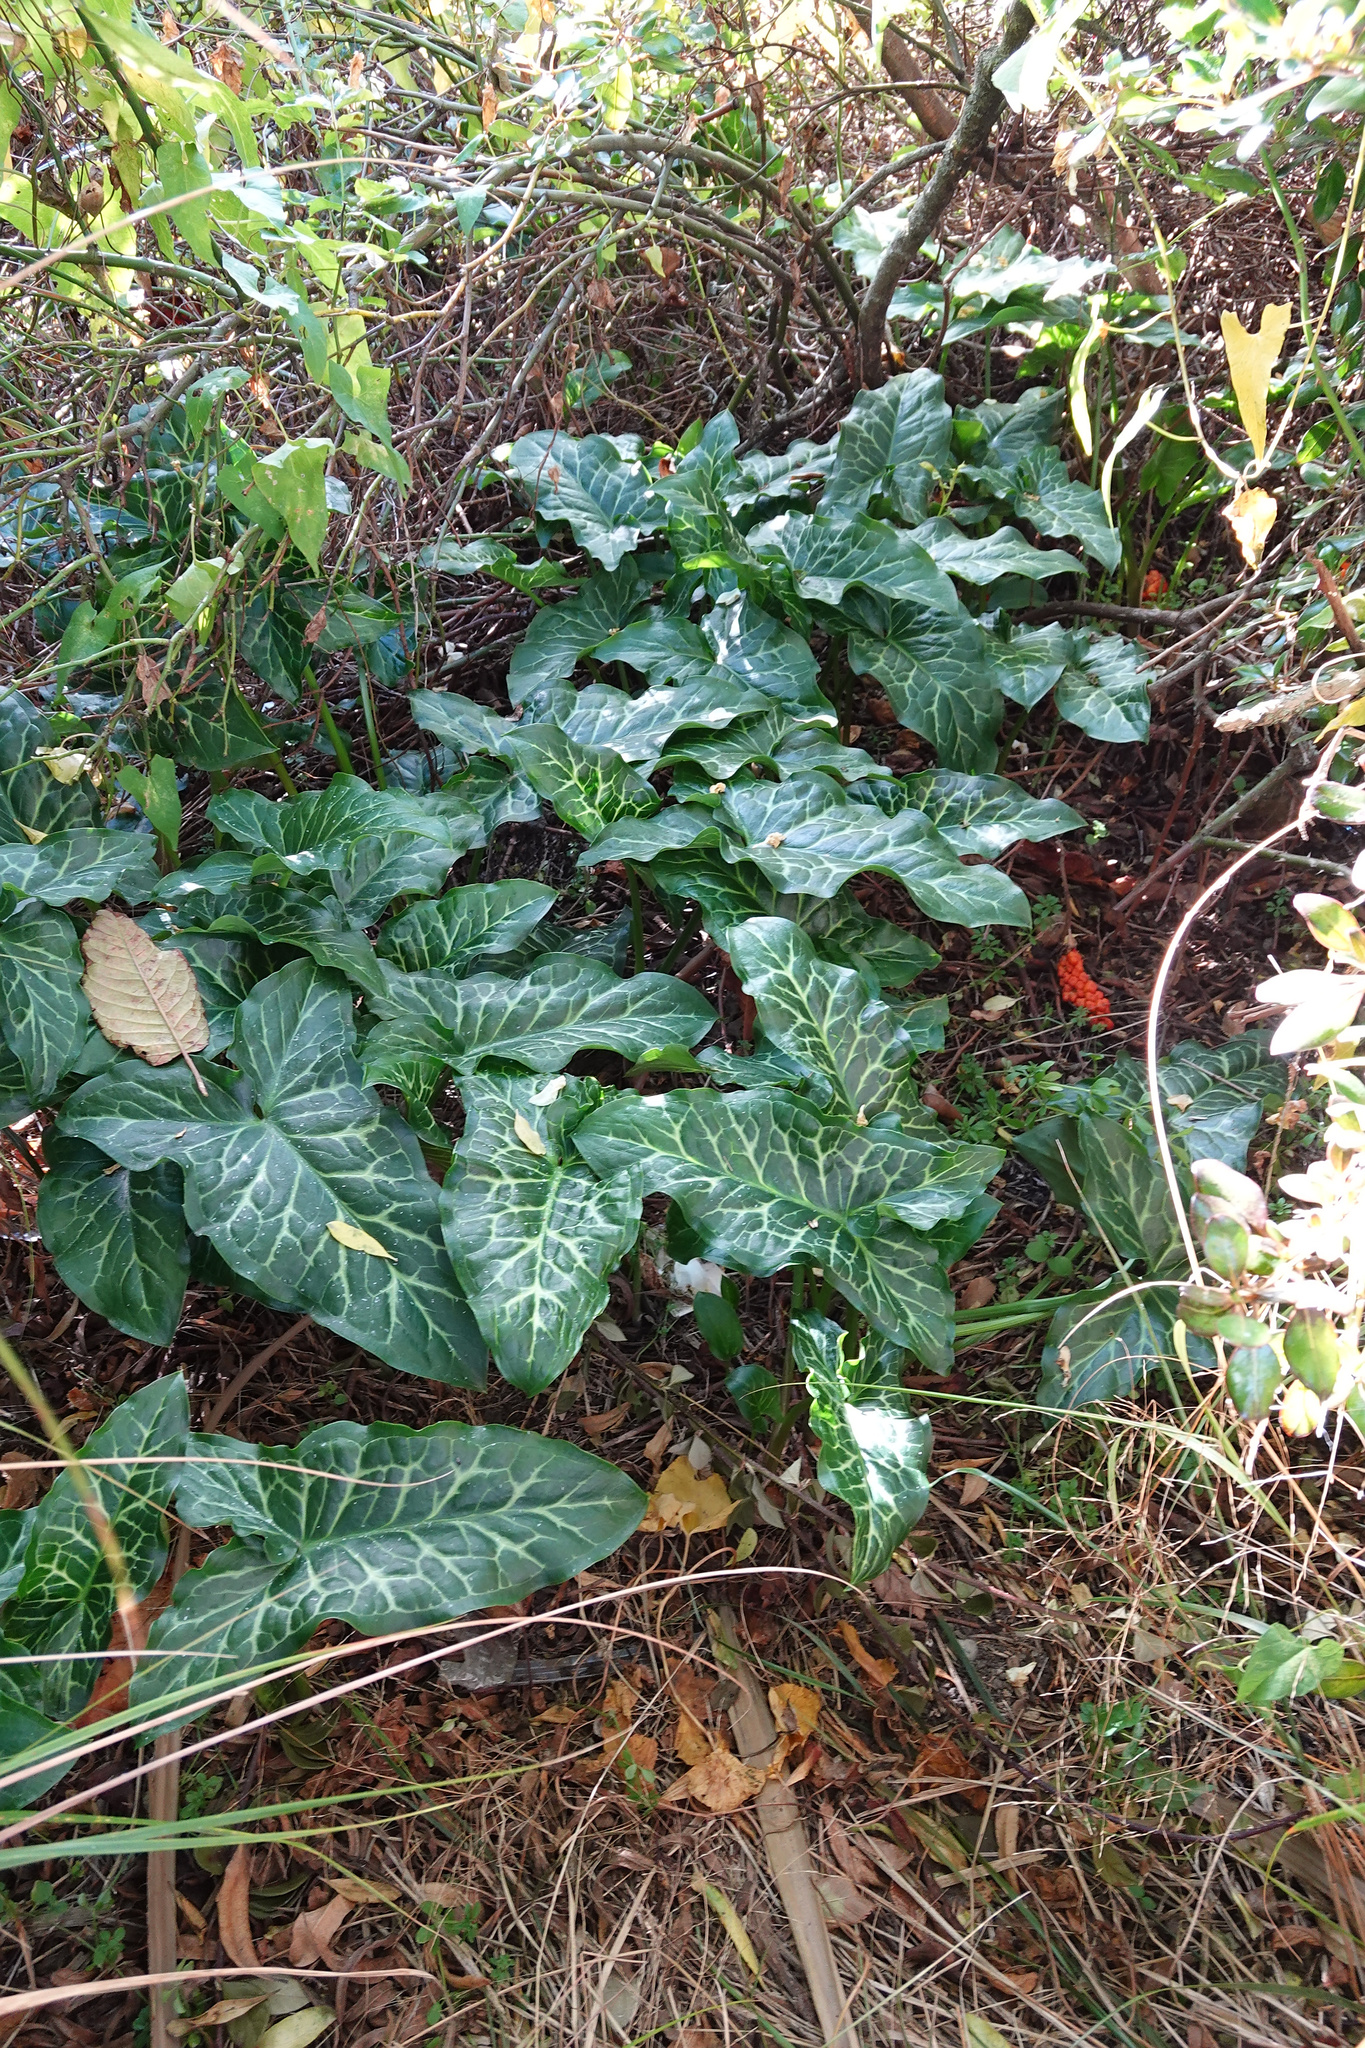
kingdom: Plantae
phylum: Tracheophyta
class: Liliopsida
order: Alismatales
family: Araceae
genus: Arum
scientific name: Arum italicum
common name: Italian lords-and-ladies
